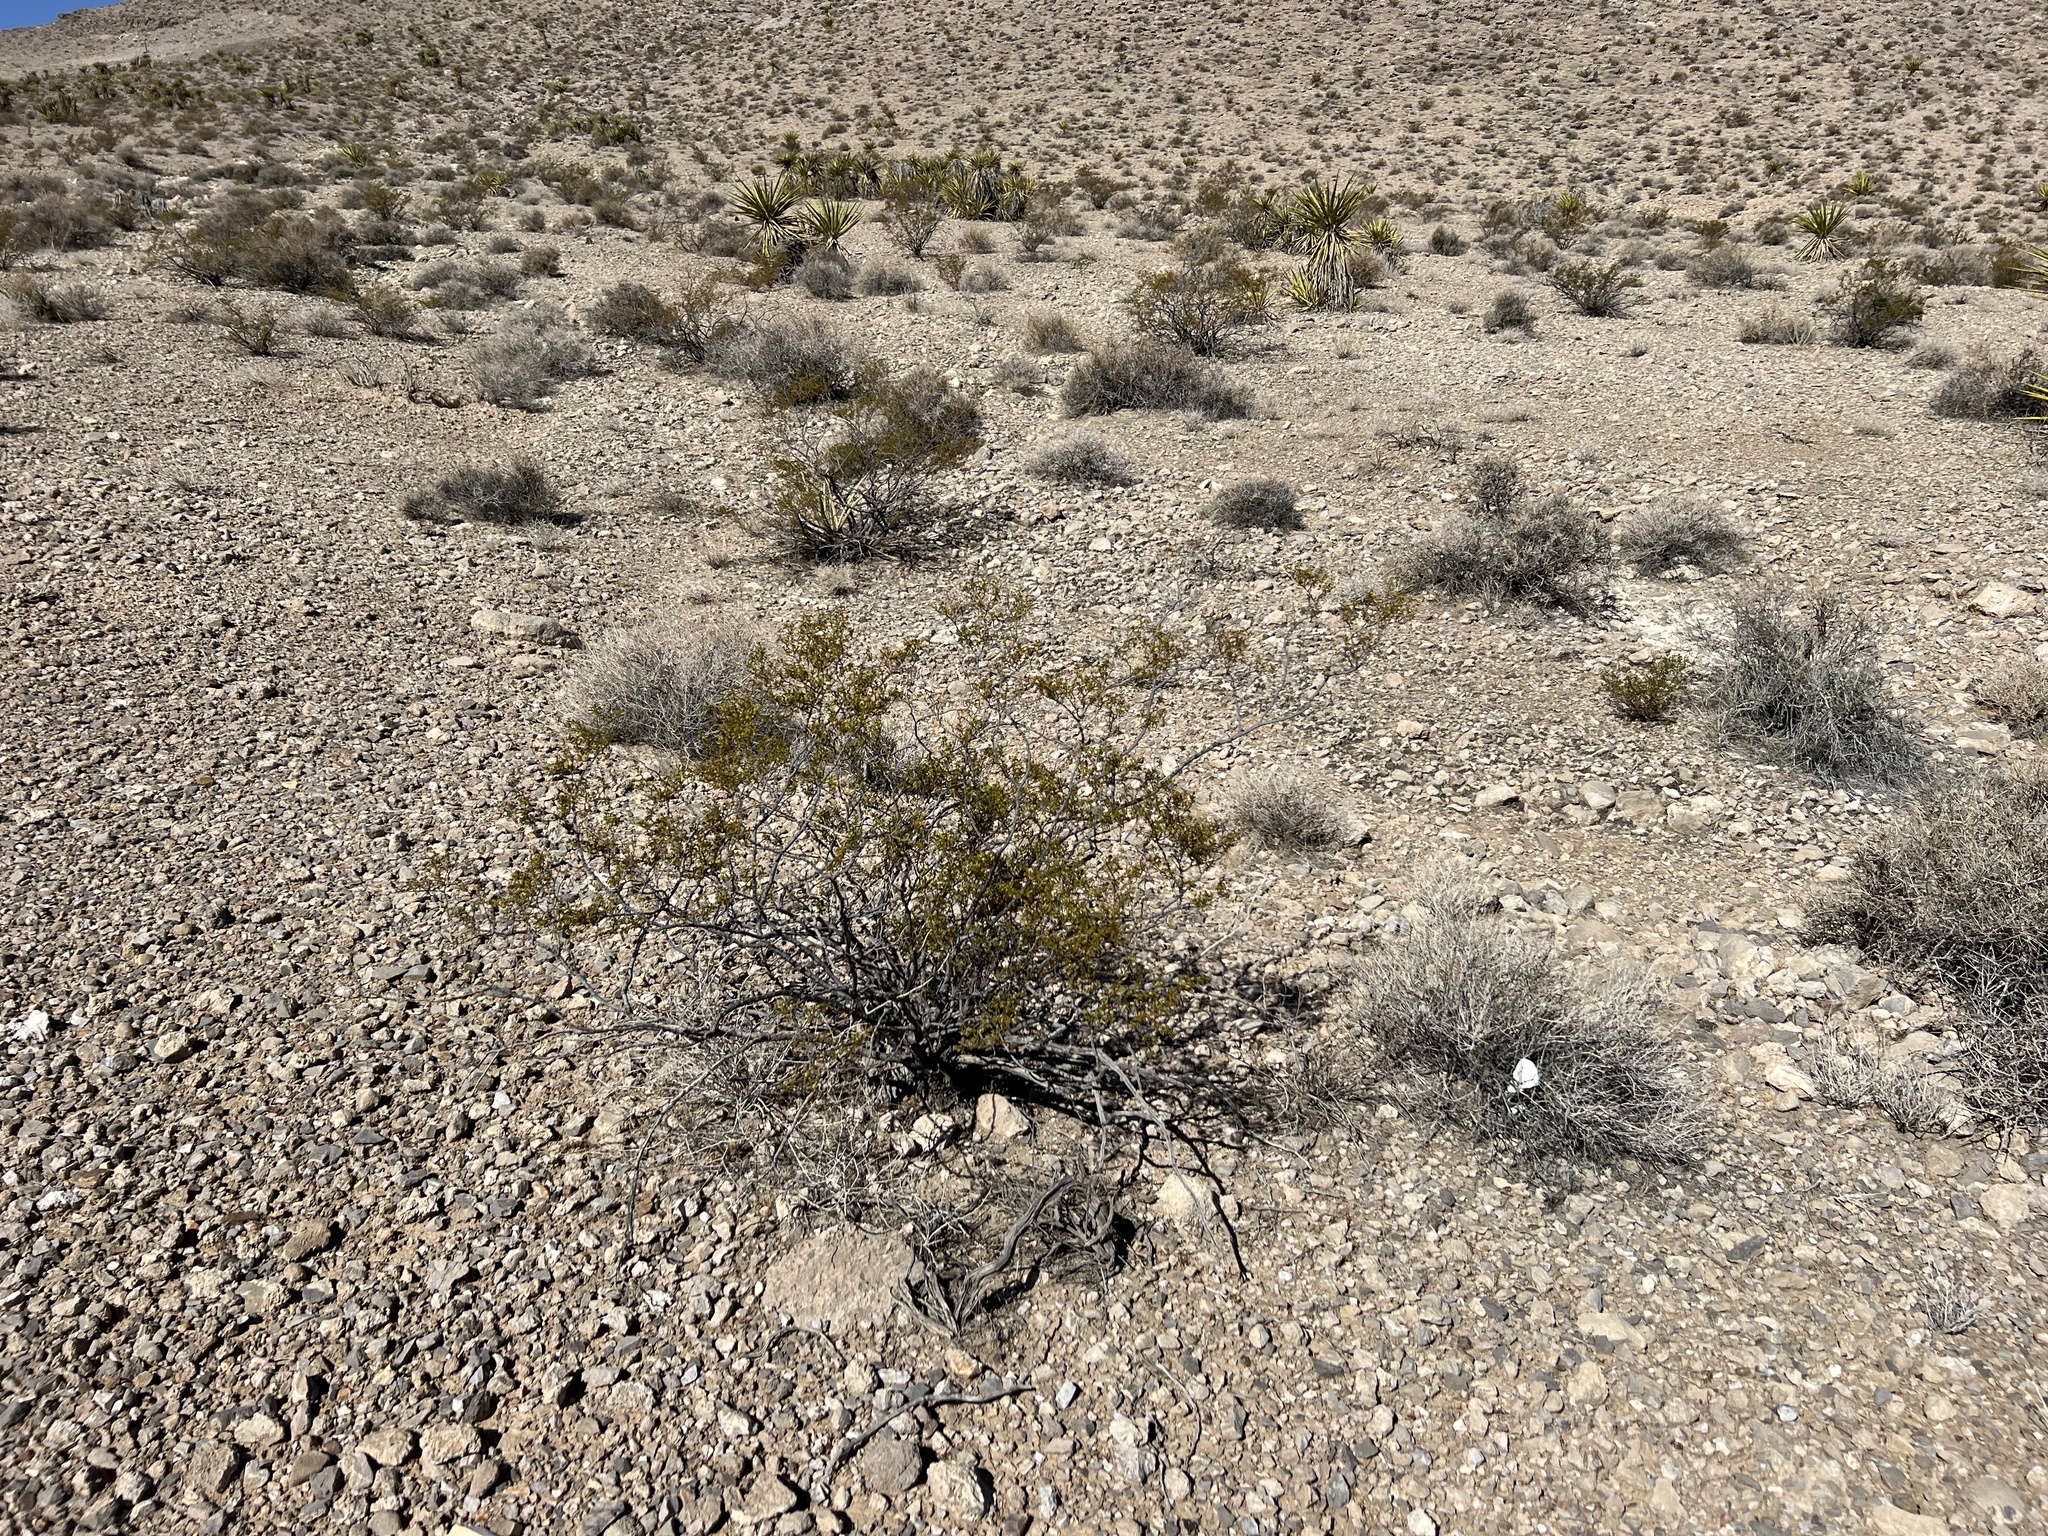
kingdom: Plantae
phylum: Tracheophyta
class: Magnoliopsida
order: Zygophyllales
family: Zygophyllaceae
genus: Larrea
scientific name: Larrea tridentata
